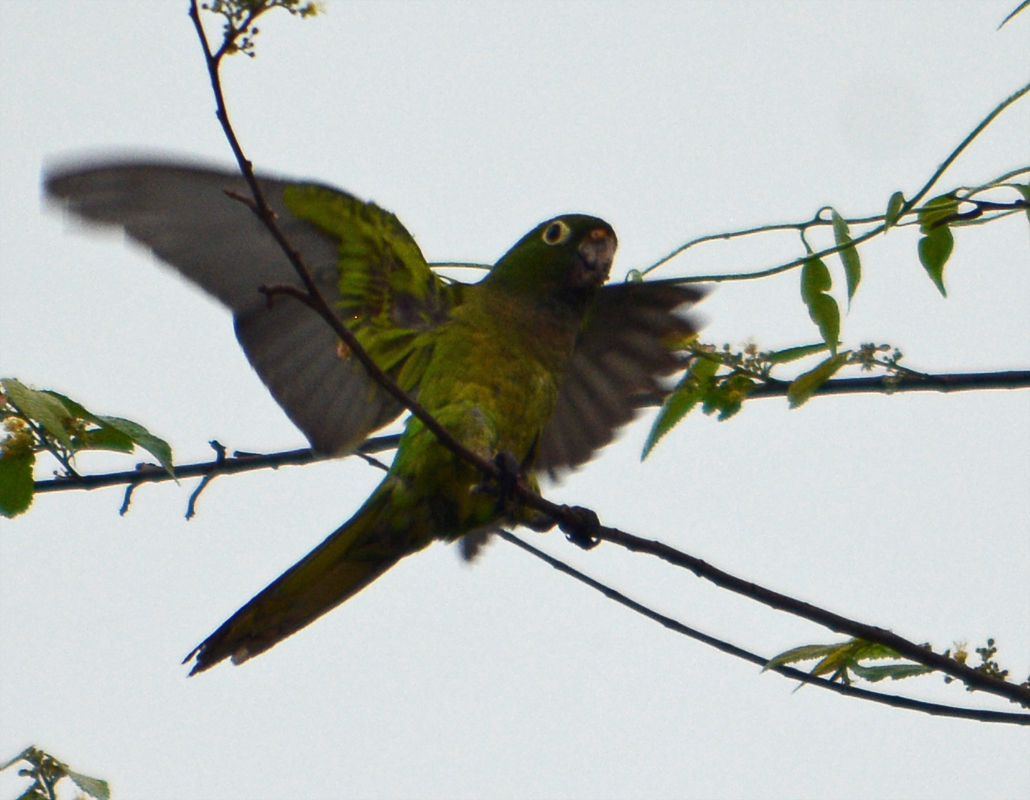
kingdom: Animalia
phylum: Chordata
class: Aves
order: Psittaciformes
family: Psittacidae
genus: Aratinga
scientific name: Aratinga nana
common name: Olive-throated parakeet
